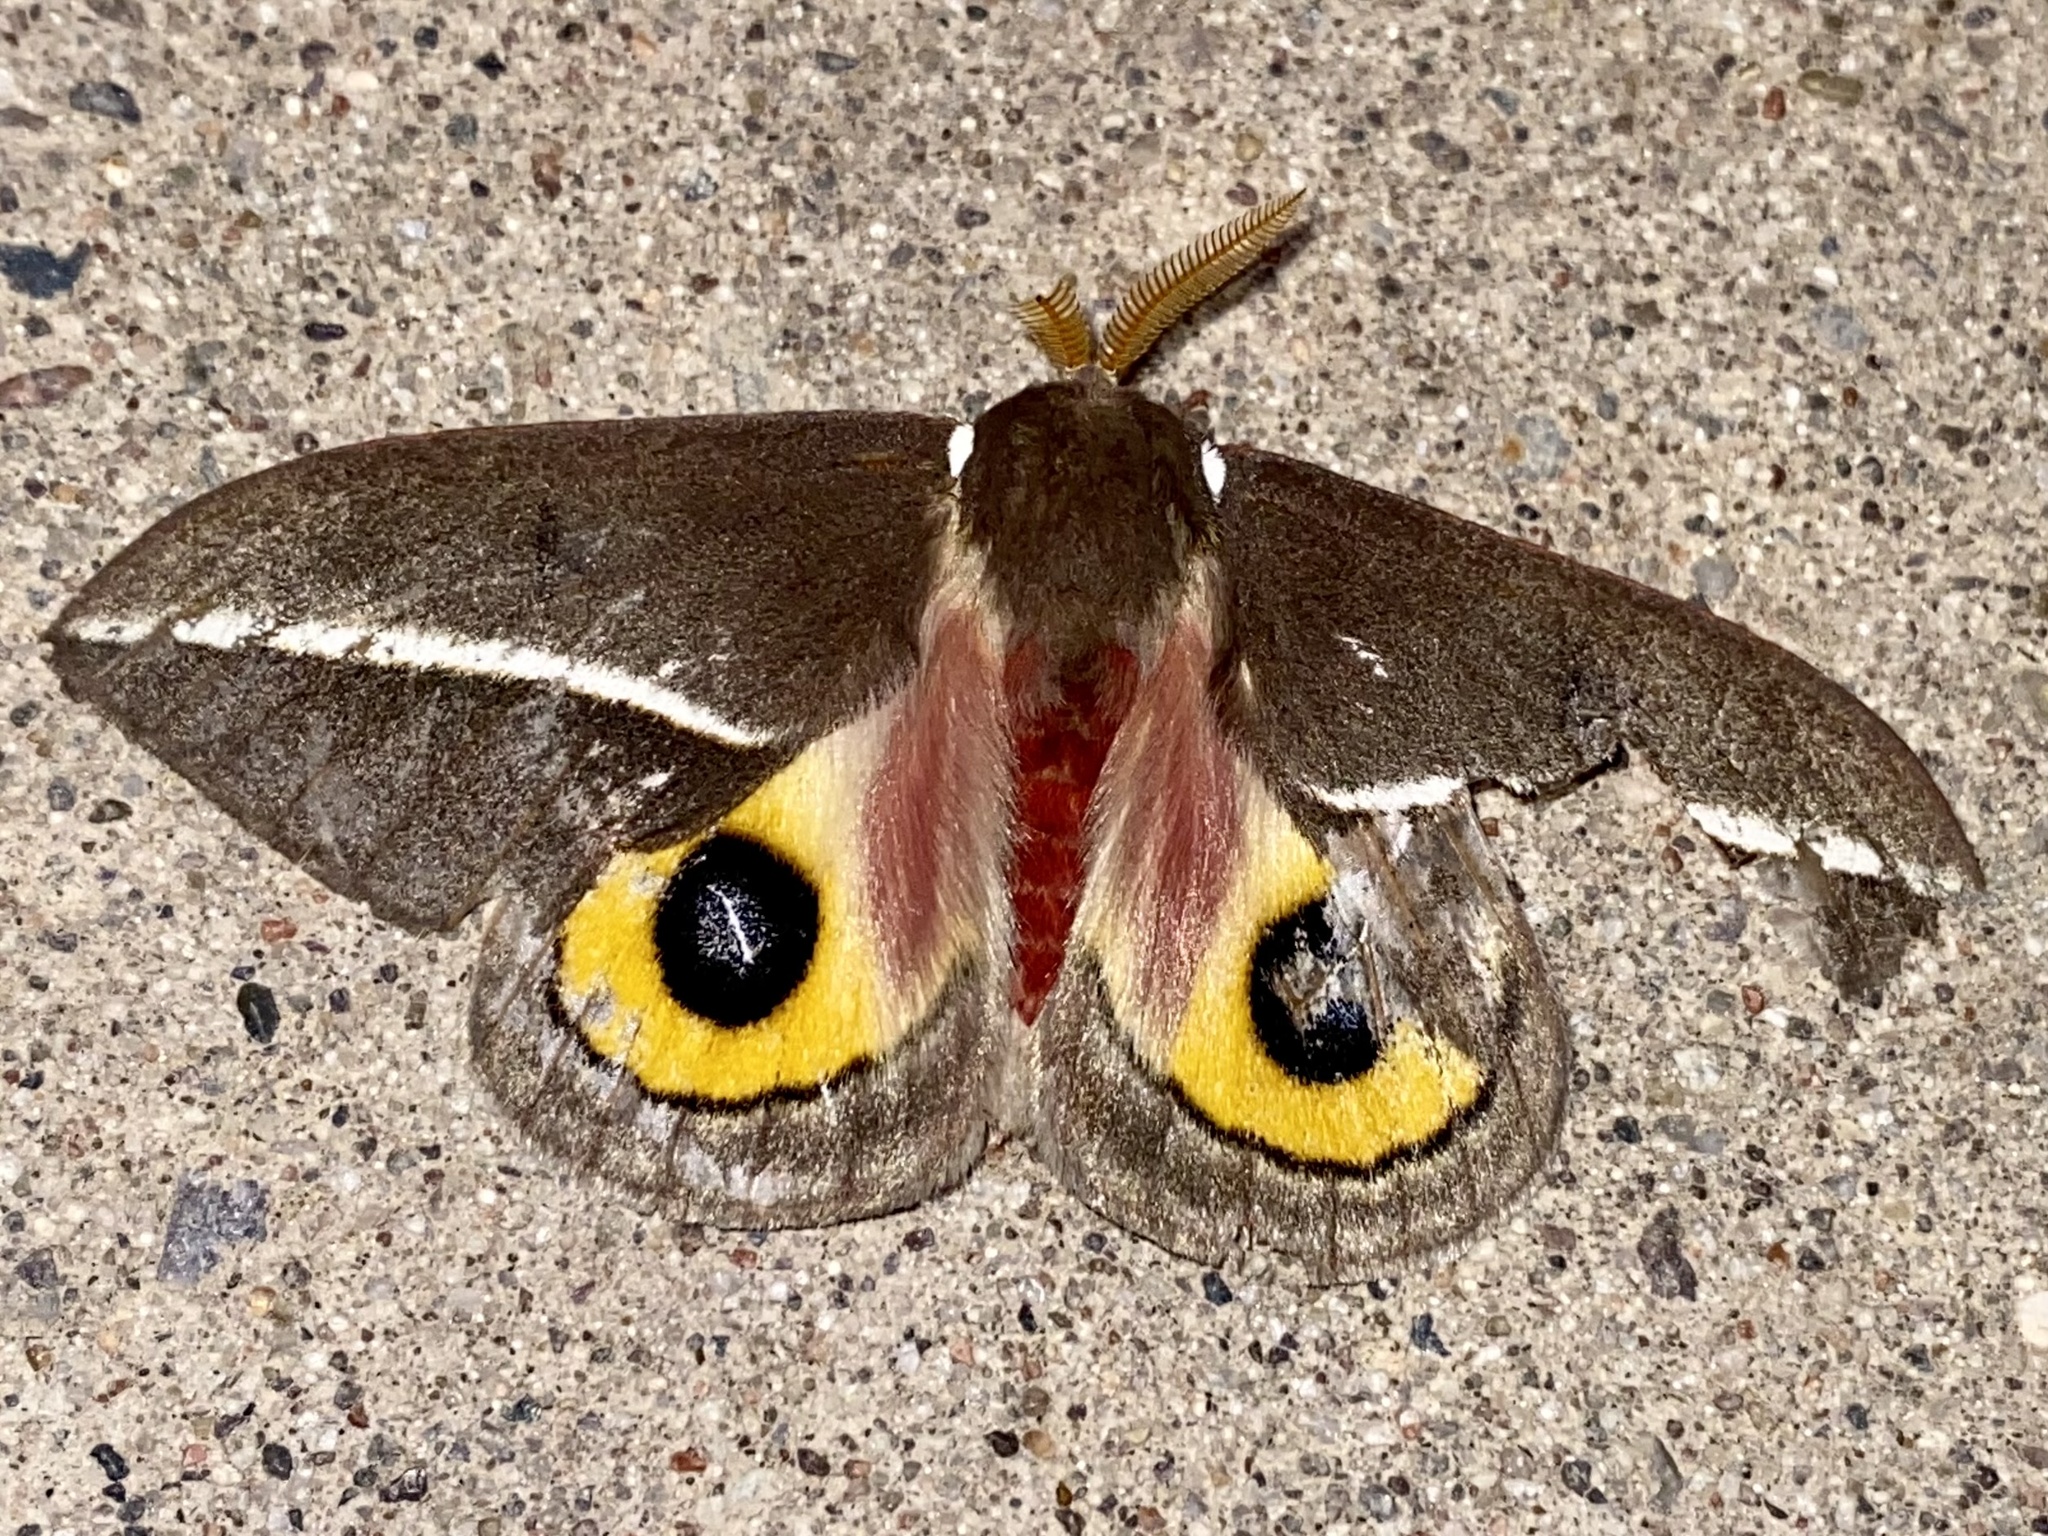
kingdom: Animalia
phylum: Arthropoda
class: Insecta
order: Lepidoptera
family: Saturniidae
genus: Automeris
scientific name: Automeris zephyria
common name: Zephyr eyed silkmoth
